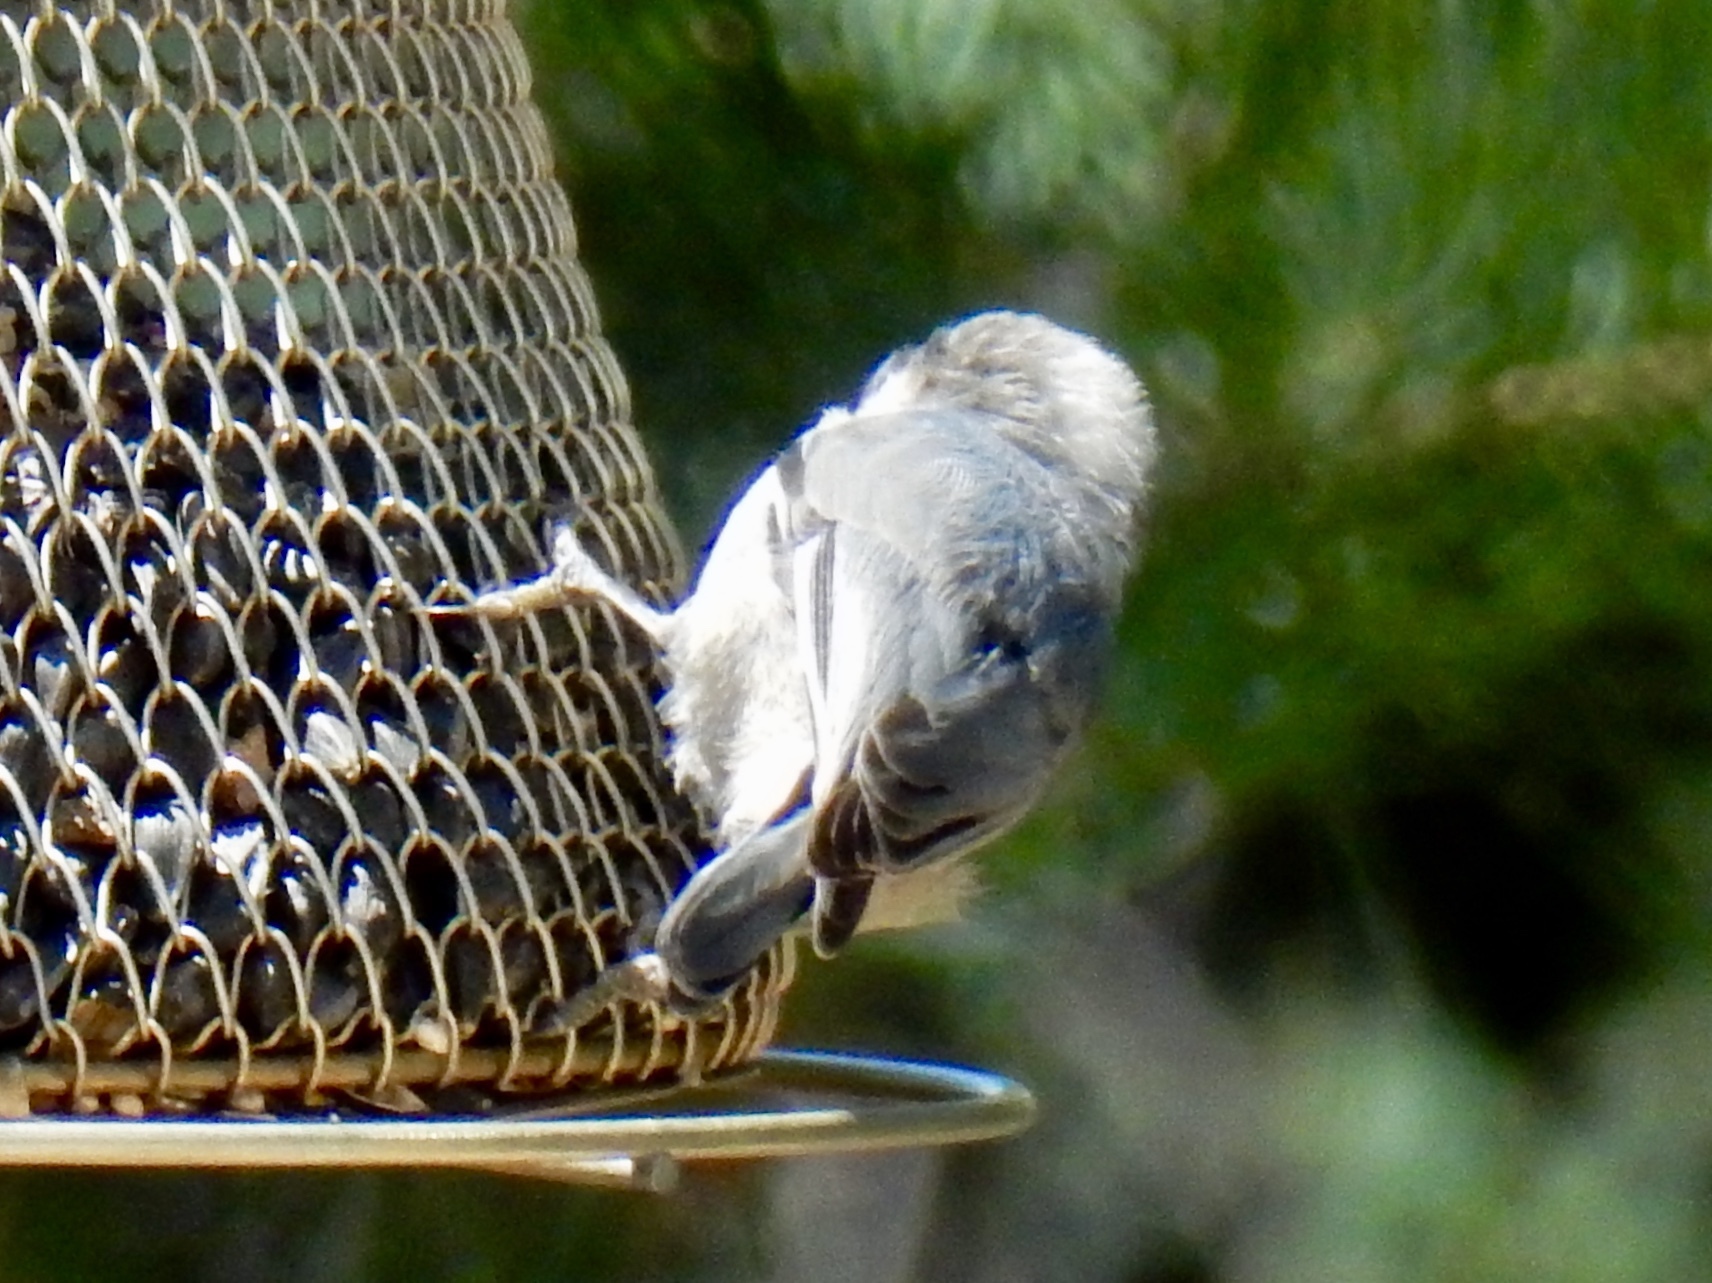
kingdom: Animalia
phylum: Chordata
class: Aves
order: Passeriformes
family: Sittidae
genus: Sitta
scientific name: Sitta pygmaea
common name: Pygmy nuthatch
